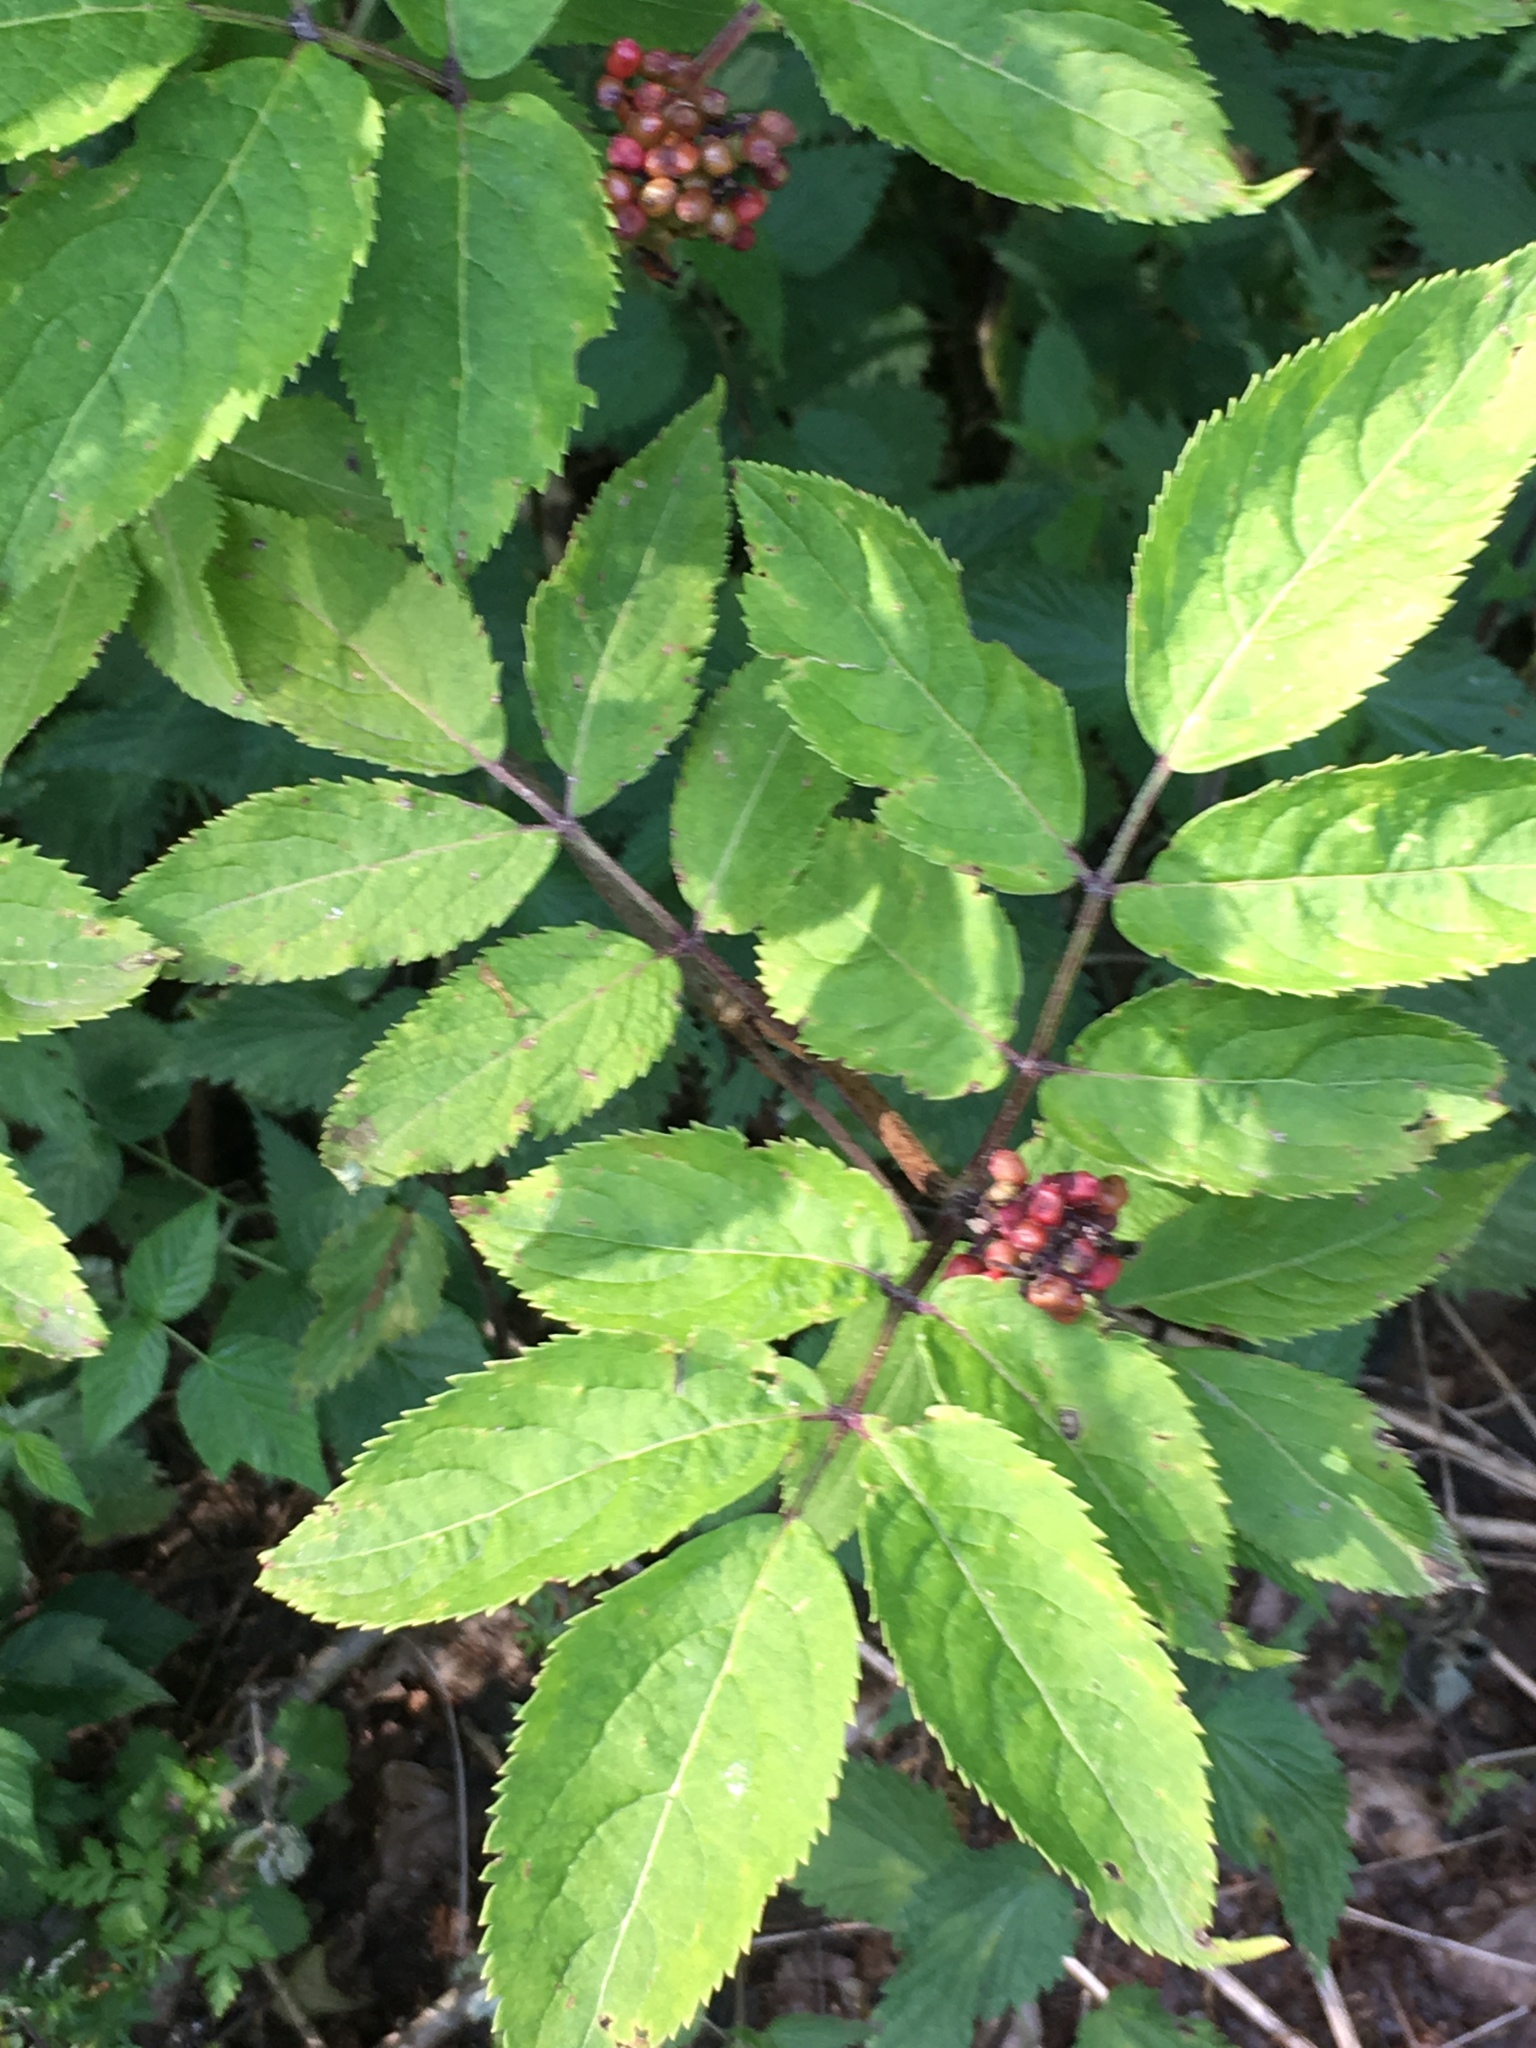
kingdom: Plantae
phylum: Tracheophyta
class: Magnoliopsida
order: Dipsacales
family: Viburnaceae
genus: Sambucus
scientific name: Sambucus racemosa
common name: Red-berried elder
